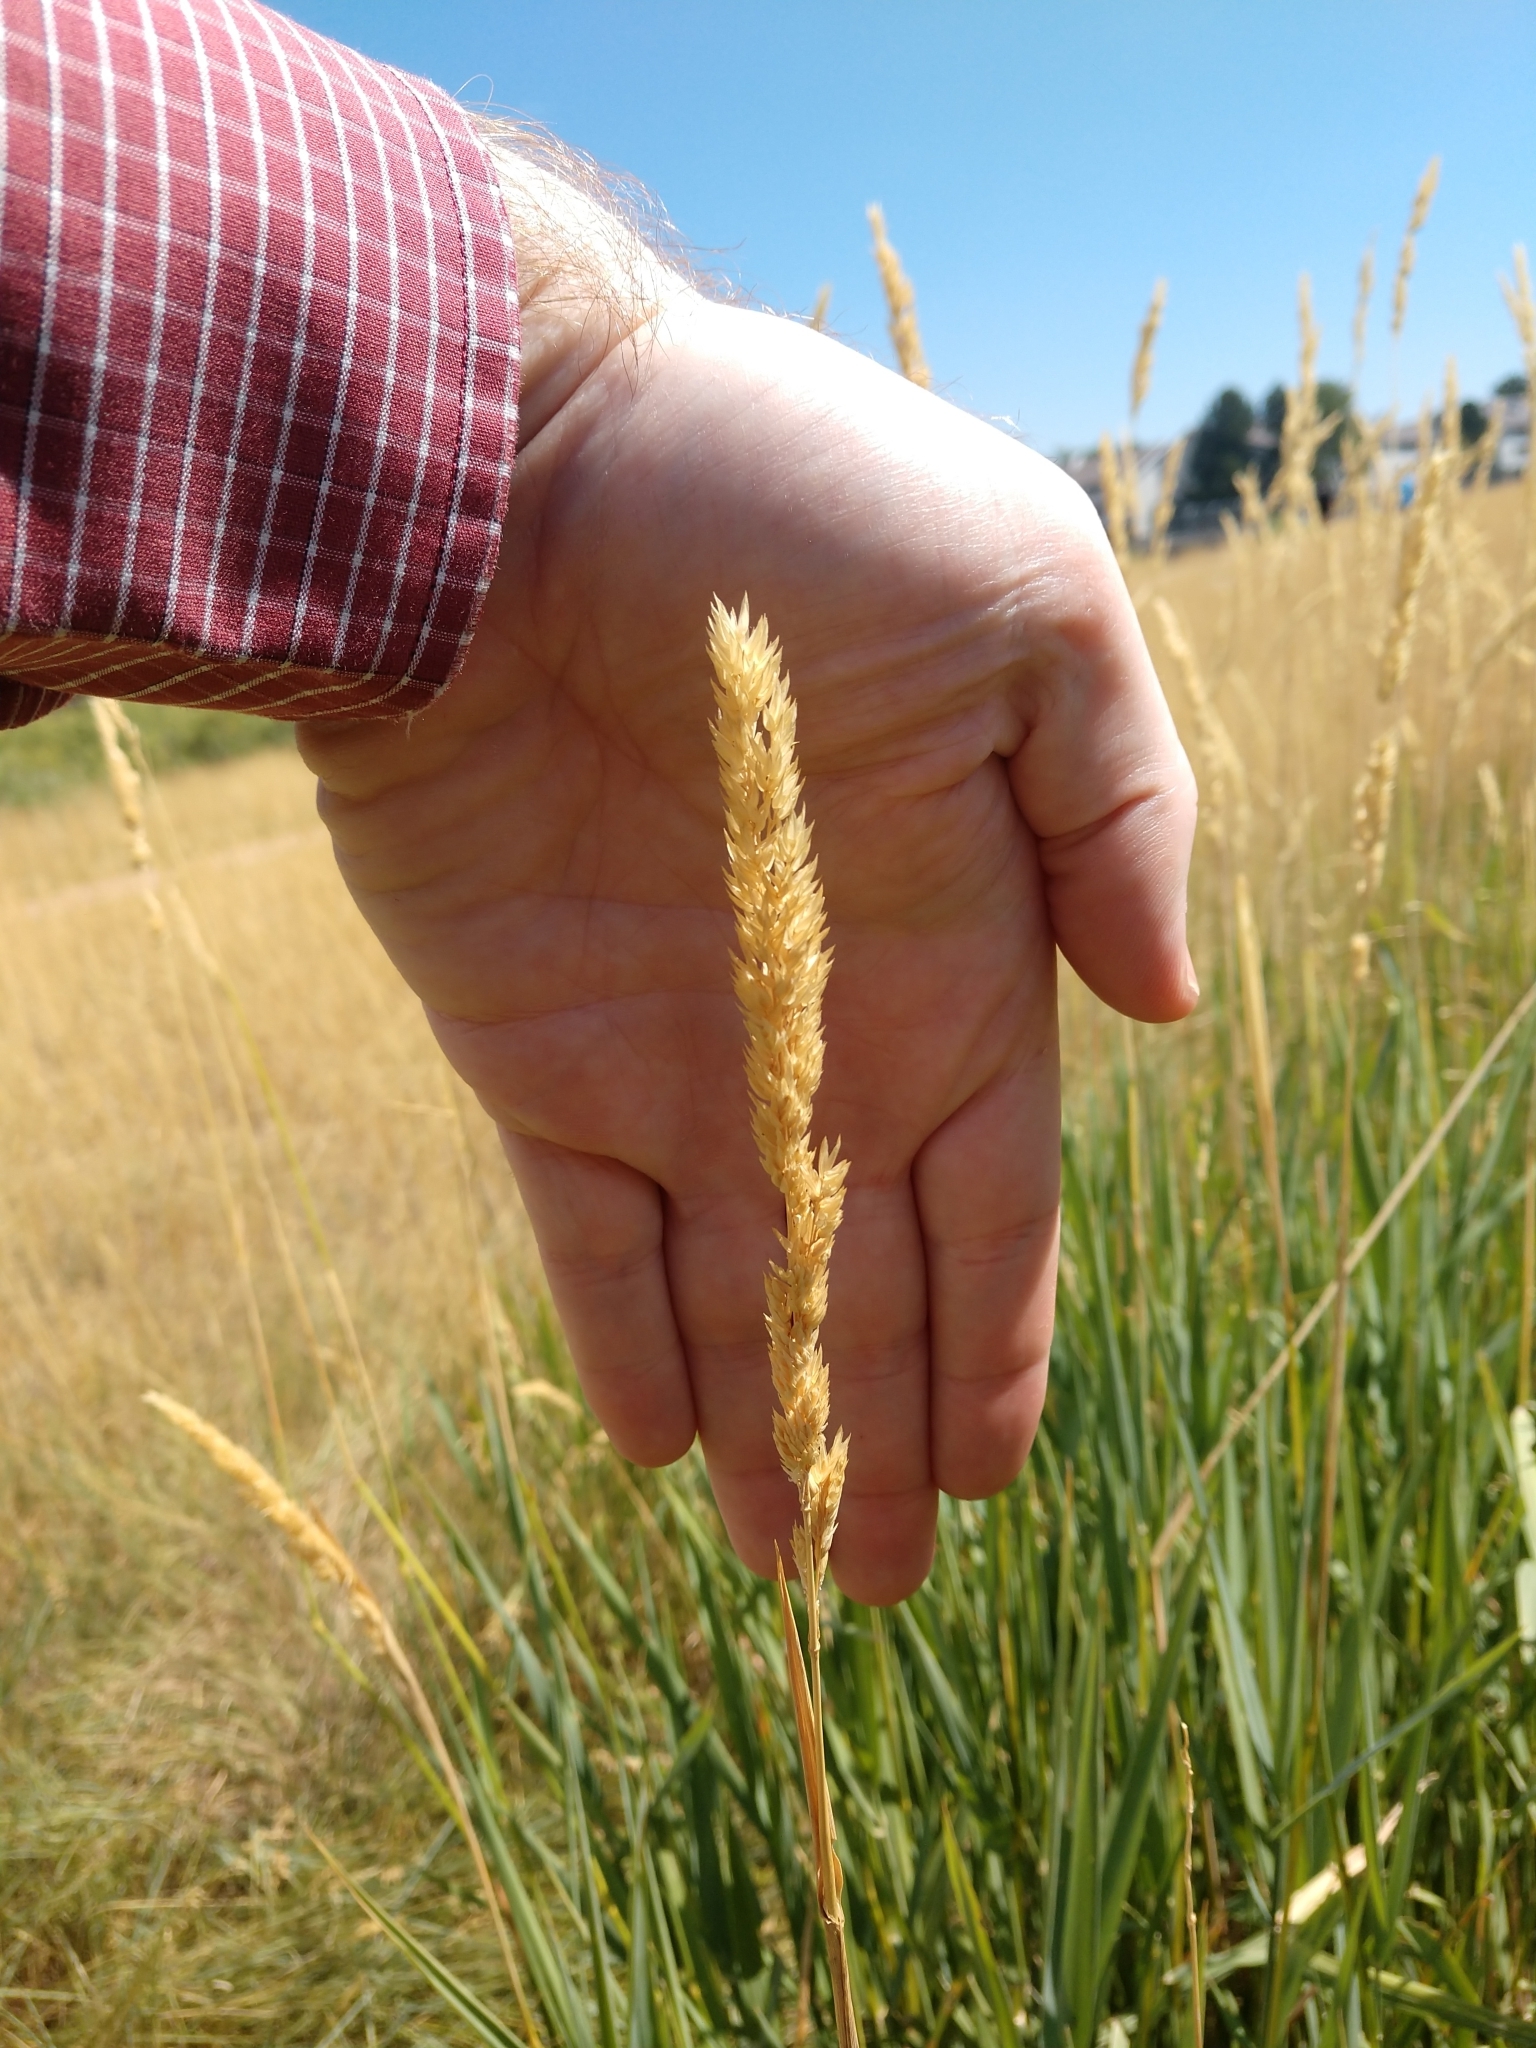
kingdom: Plantae
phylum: Tracheophyta
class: Liliopsida
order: Poales
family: Poaceae
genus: Phalaris
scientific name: Phalaris arundinacea
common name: Reed canary-grass
